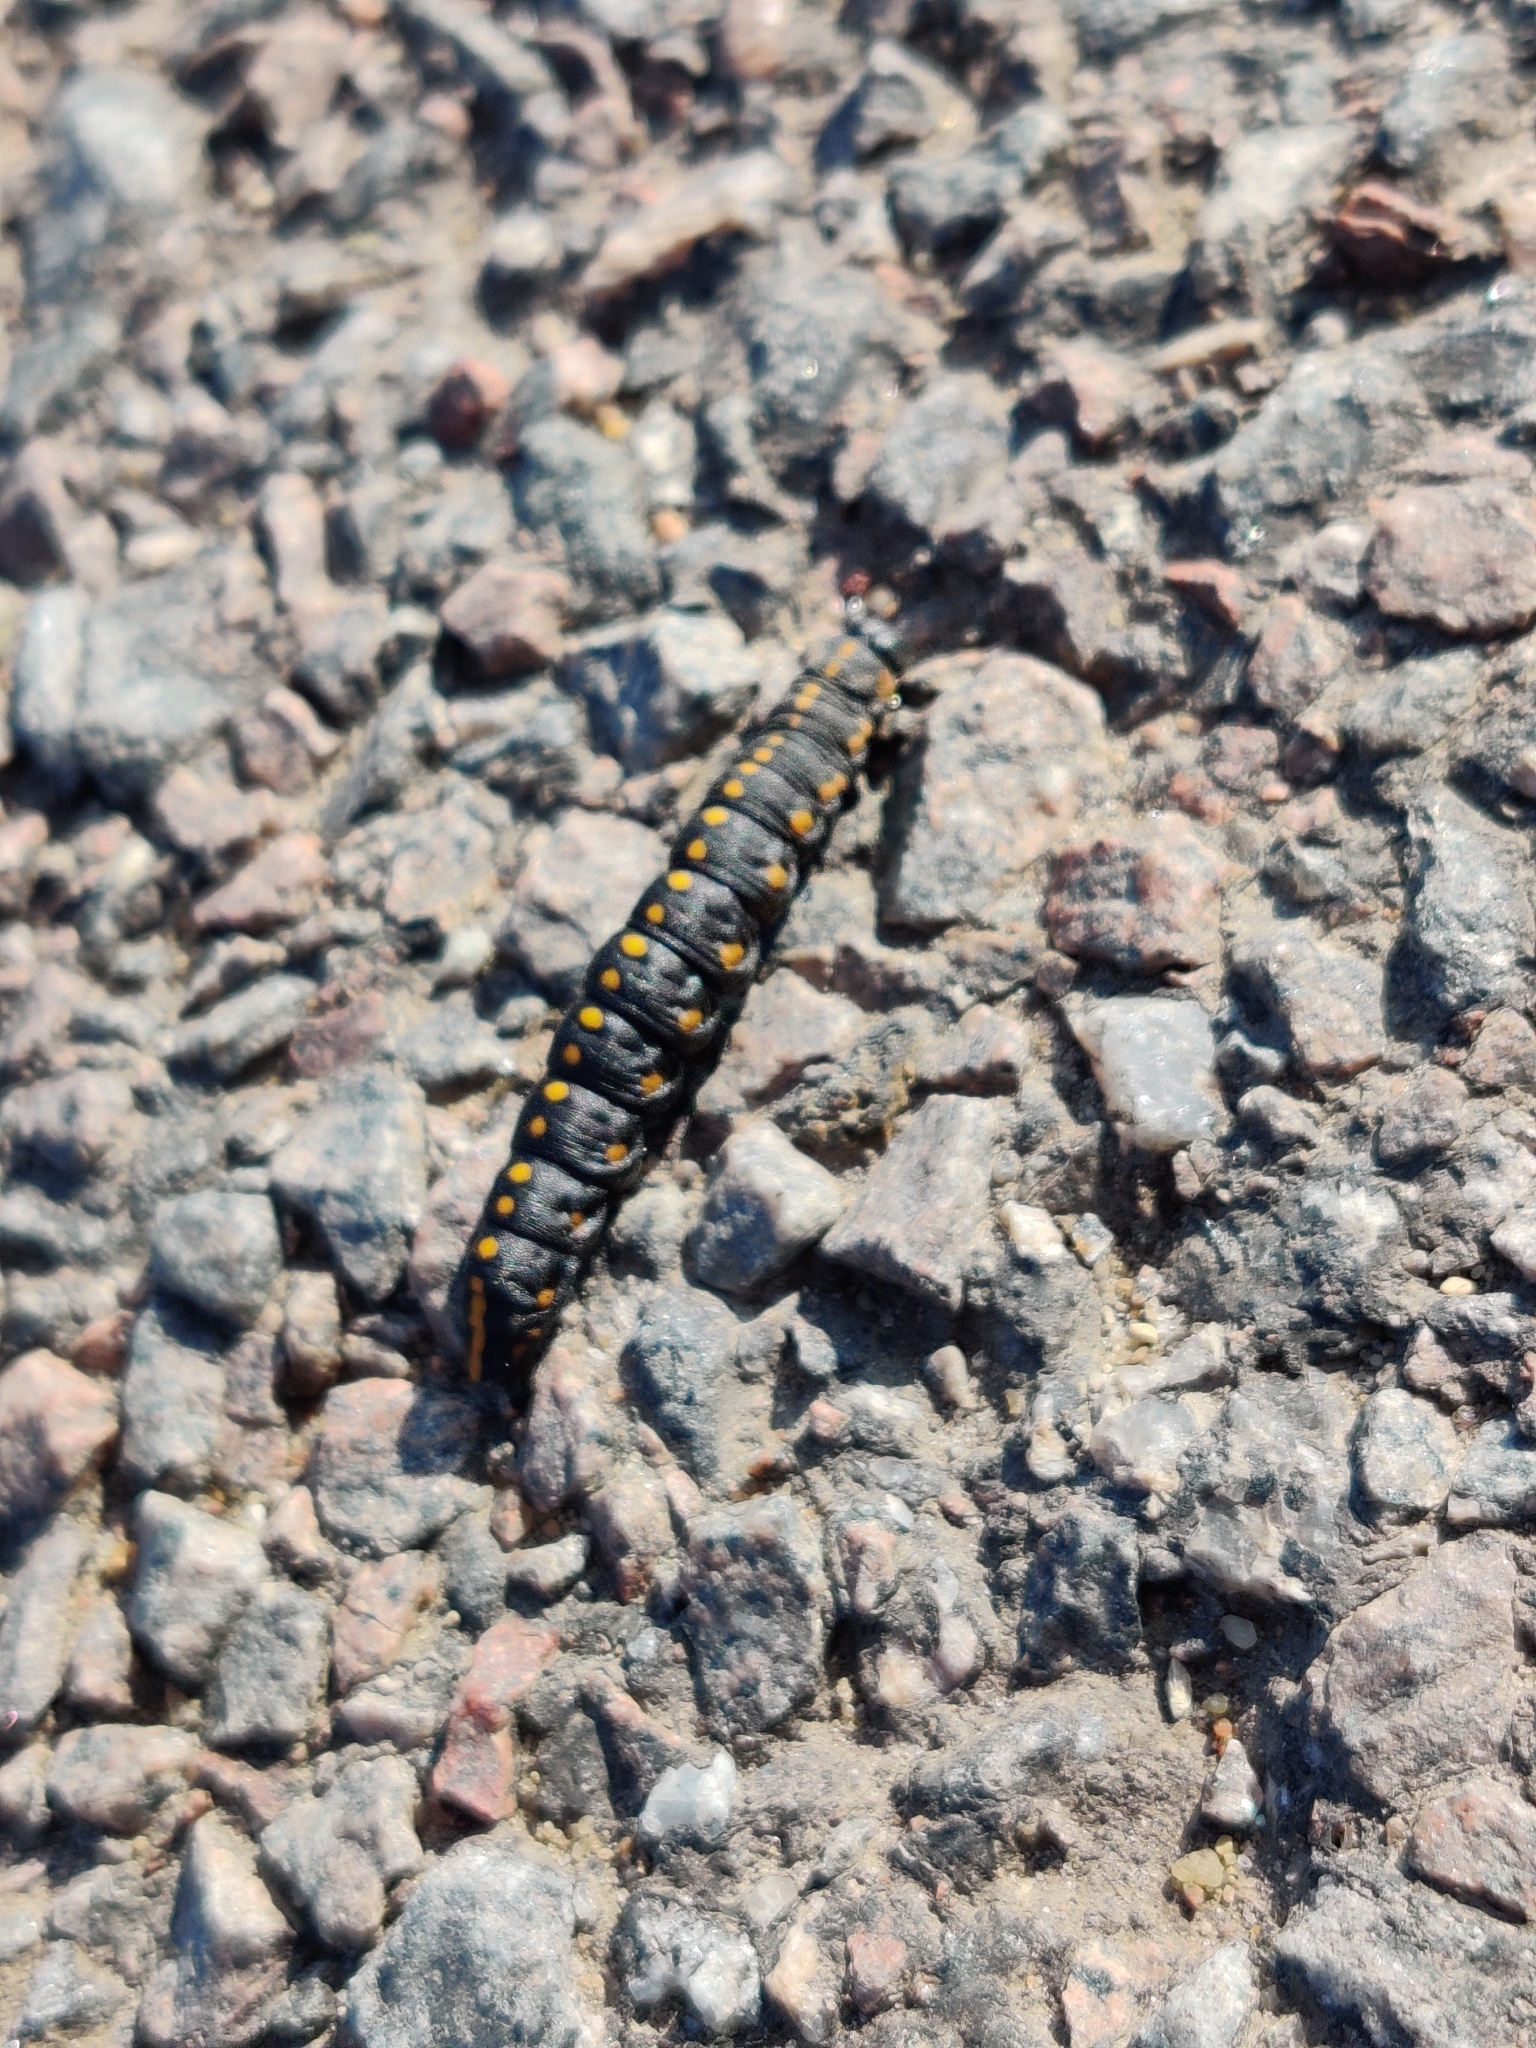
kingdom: Animalia
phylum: Arthropoda
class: Insecta
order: Lepidoptera
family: Noctuidae
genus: Cucullia
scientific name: Cucullia lucifuga
